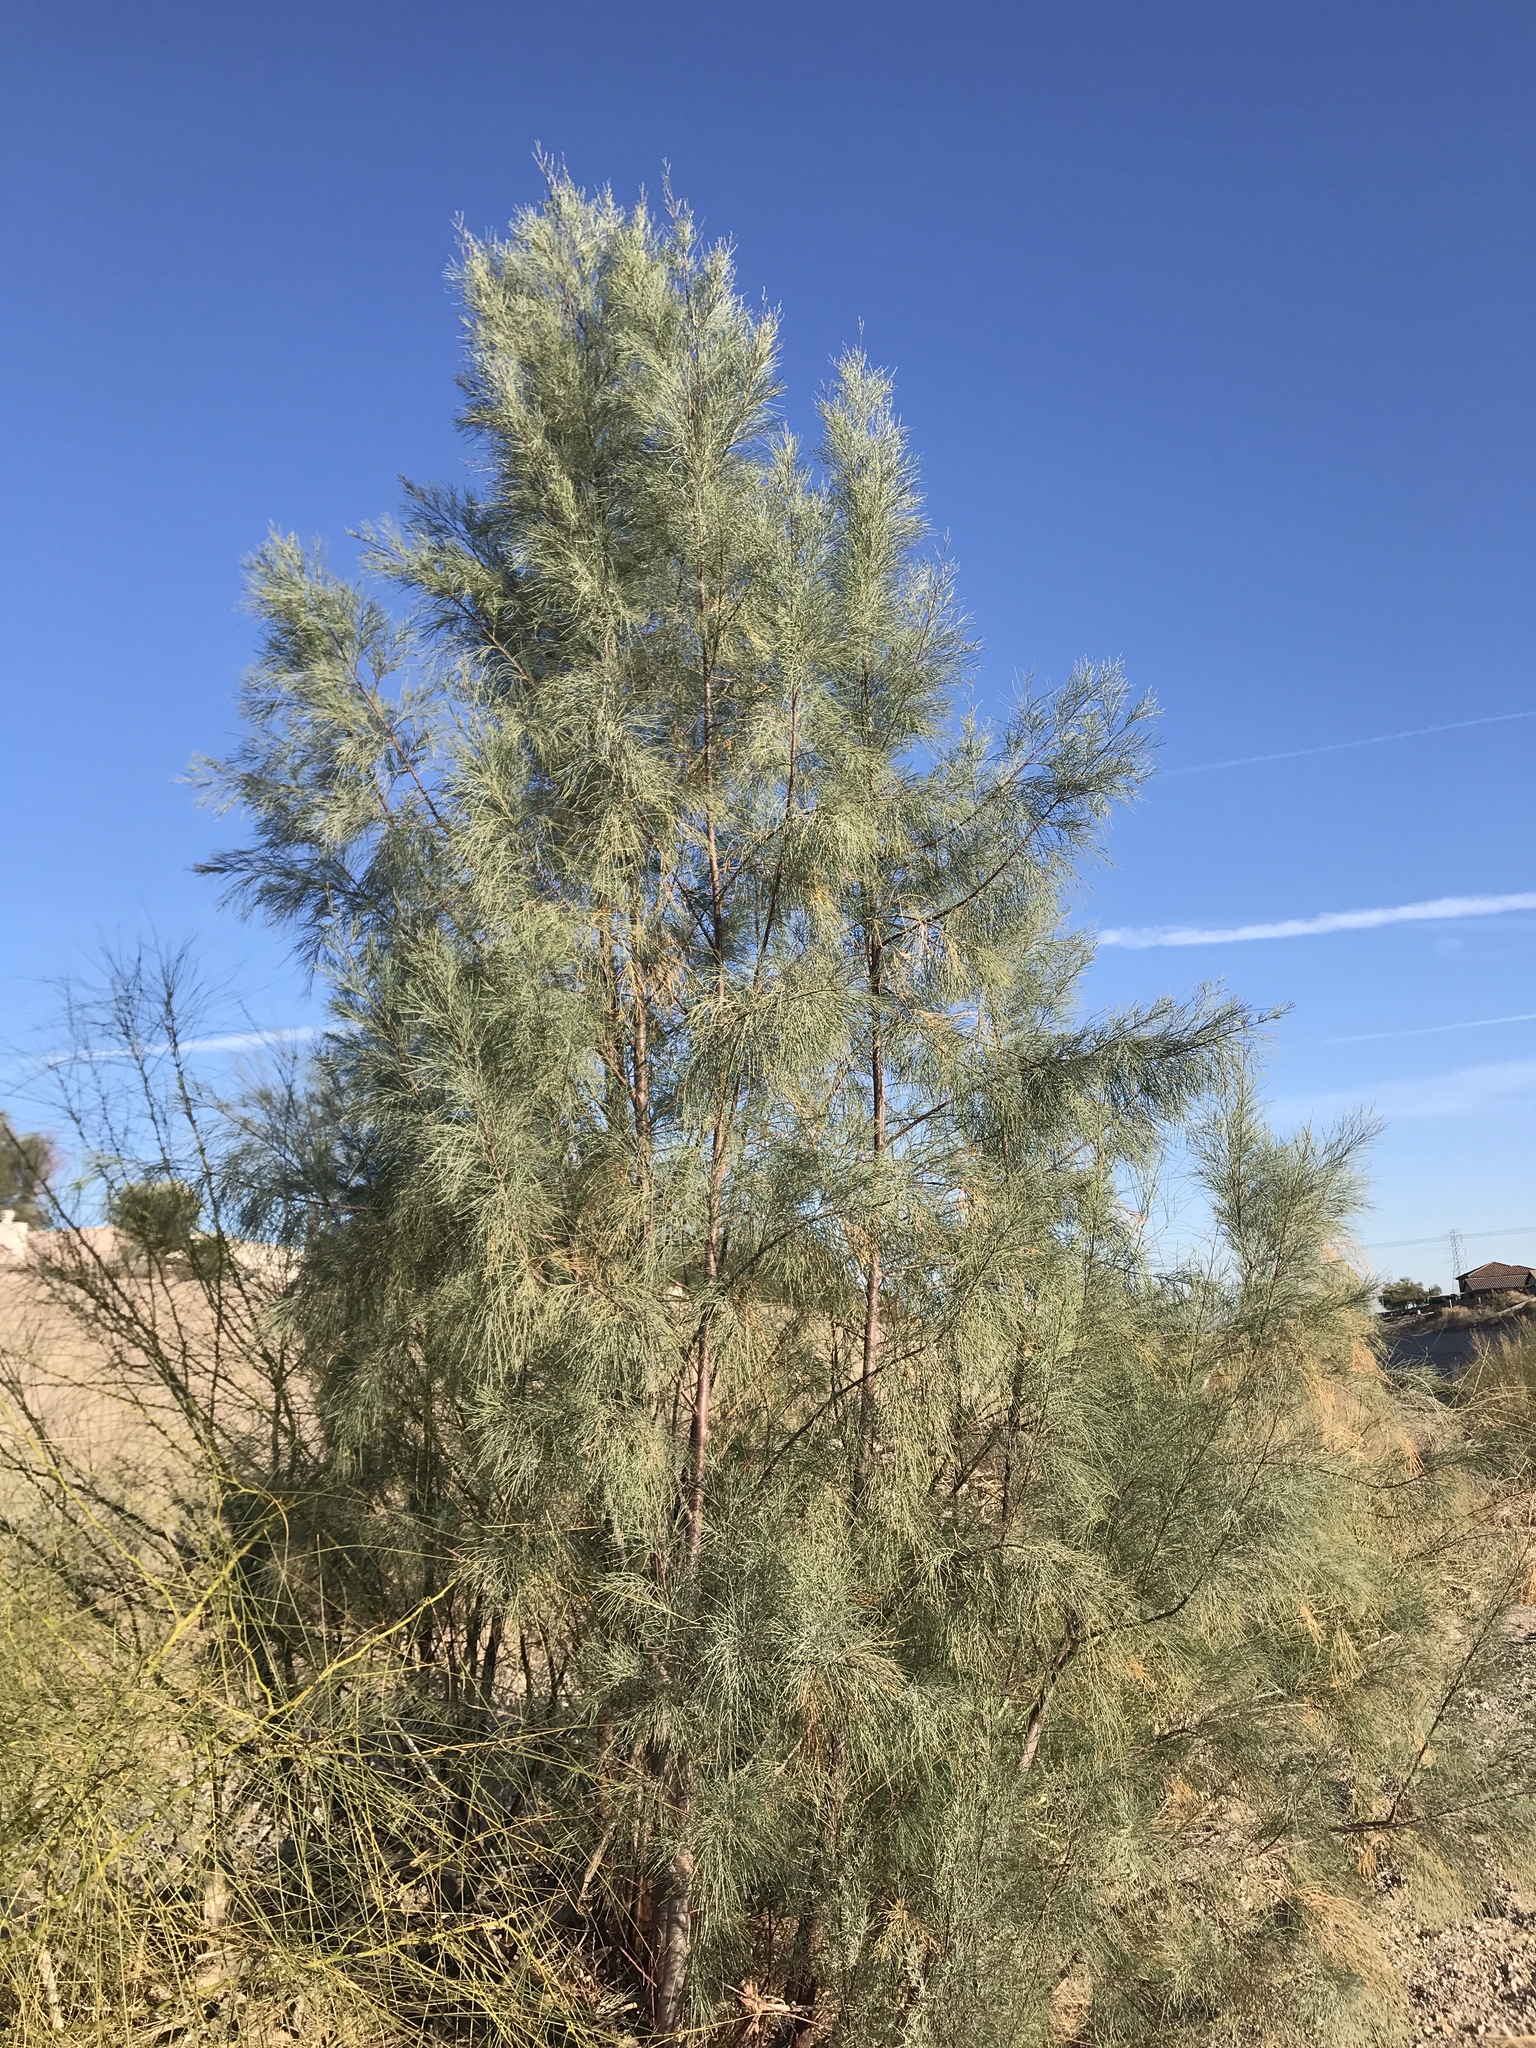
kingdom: Plantae
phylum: Tracheophyta
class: Magnoliopsida
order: Caryophyllales
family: Tamaricaceae
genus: Tamarix
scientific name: Tamarix aphylla
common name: Athel tamarisk
